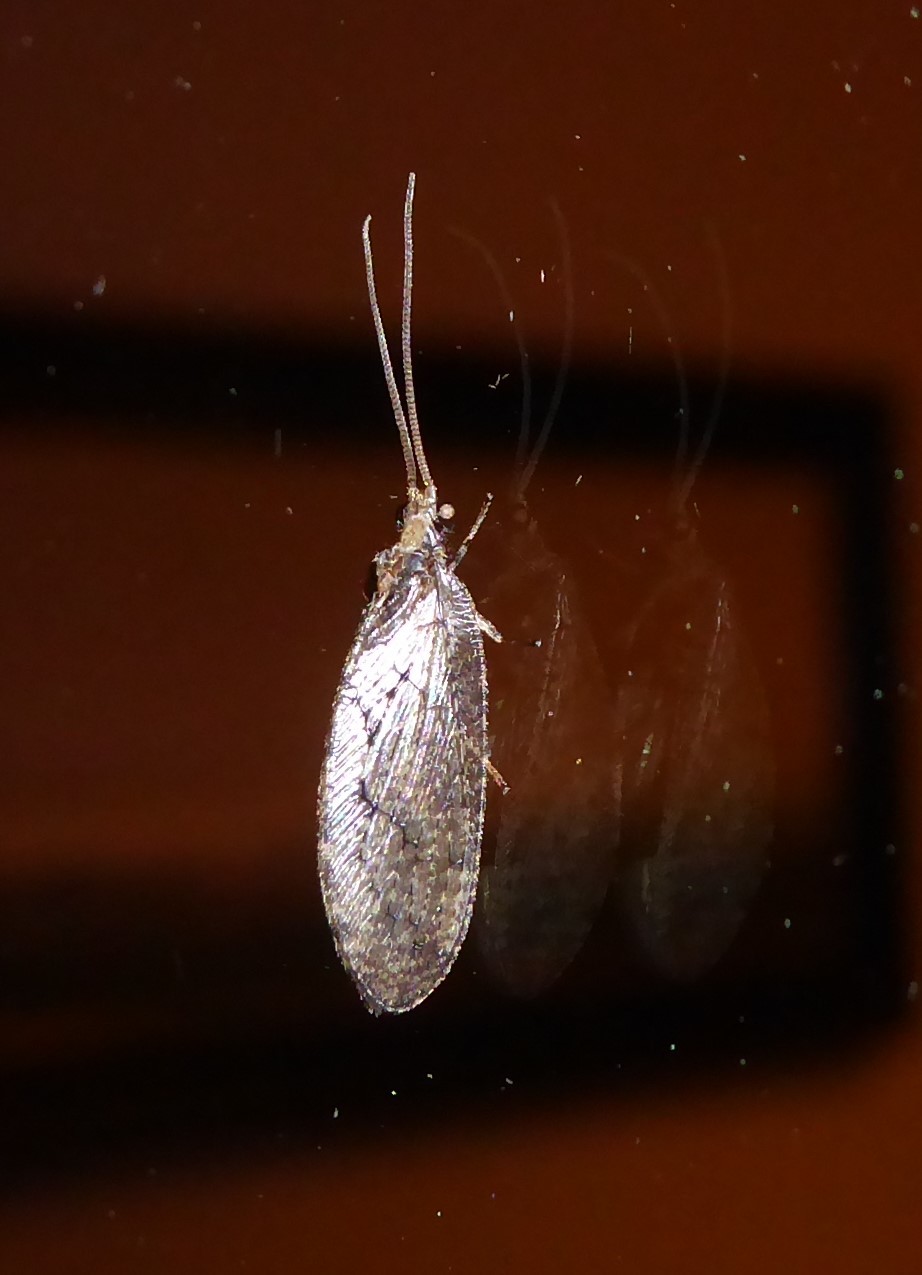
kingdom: Animalia
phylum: Arthropoda
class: Insecta
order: Neuroptera
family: Hemerobiidae
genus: Wesmaelius
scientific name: Wesmaelius subnebulosus
